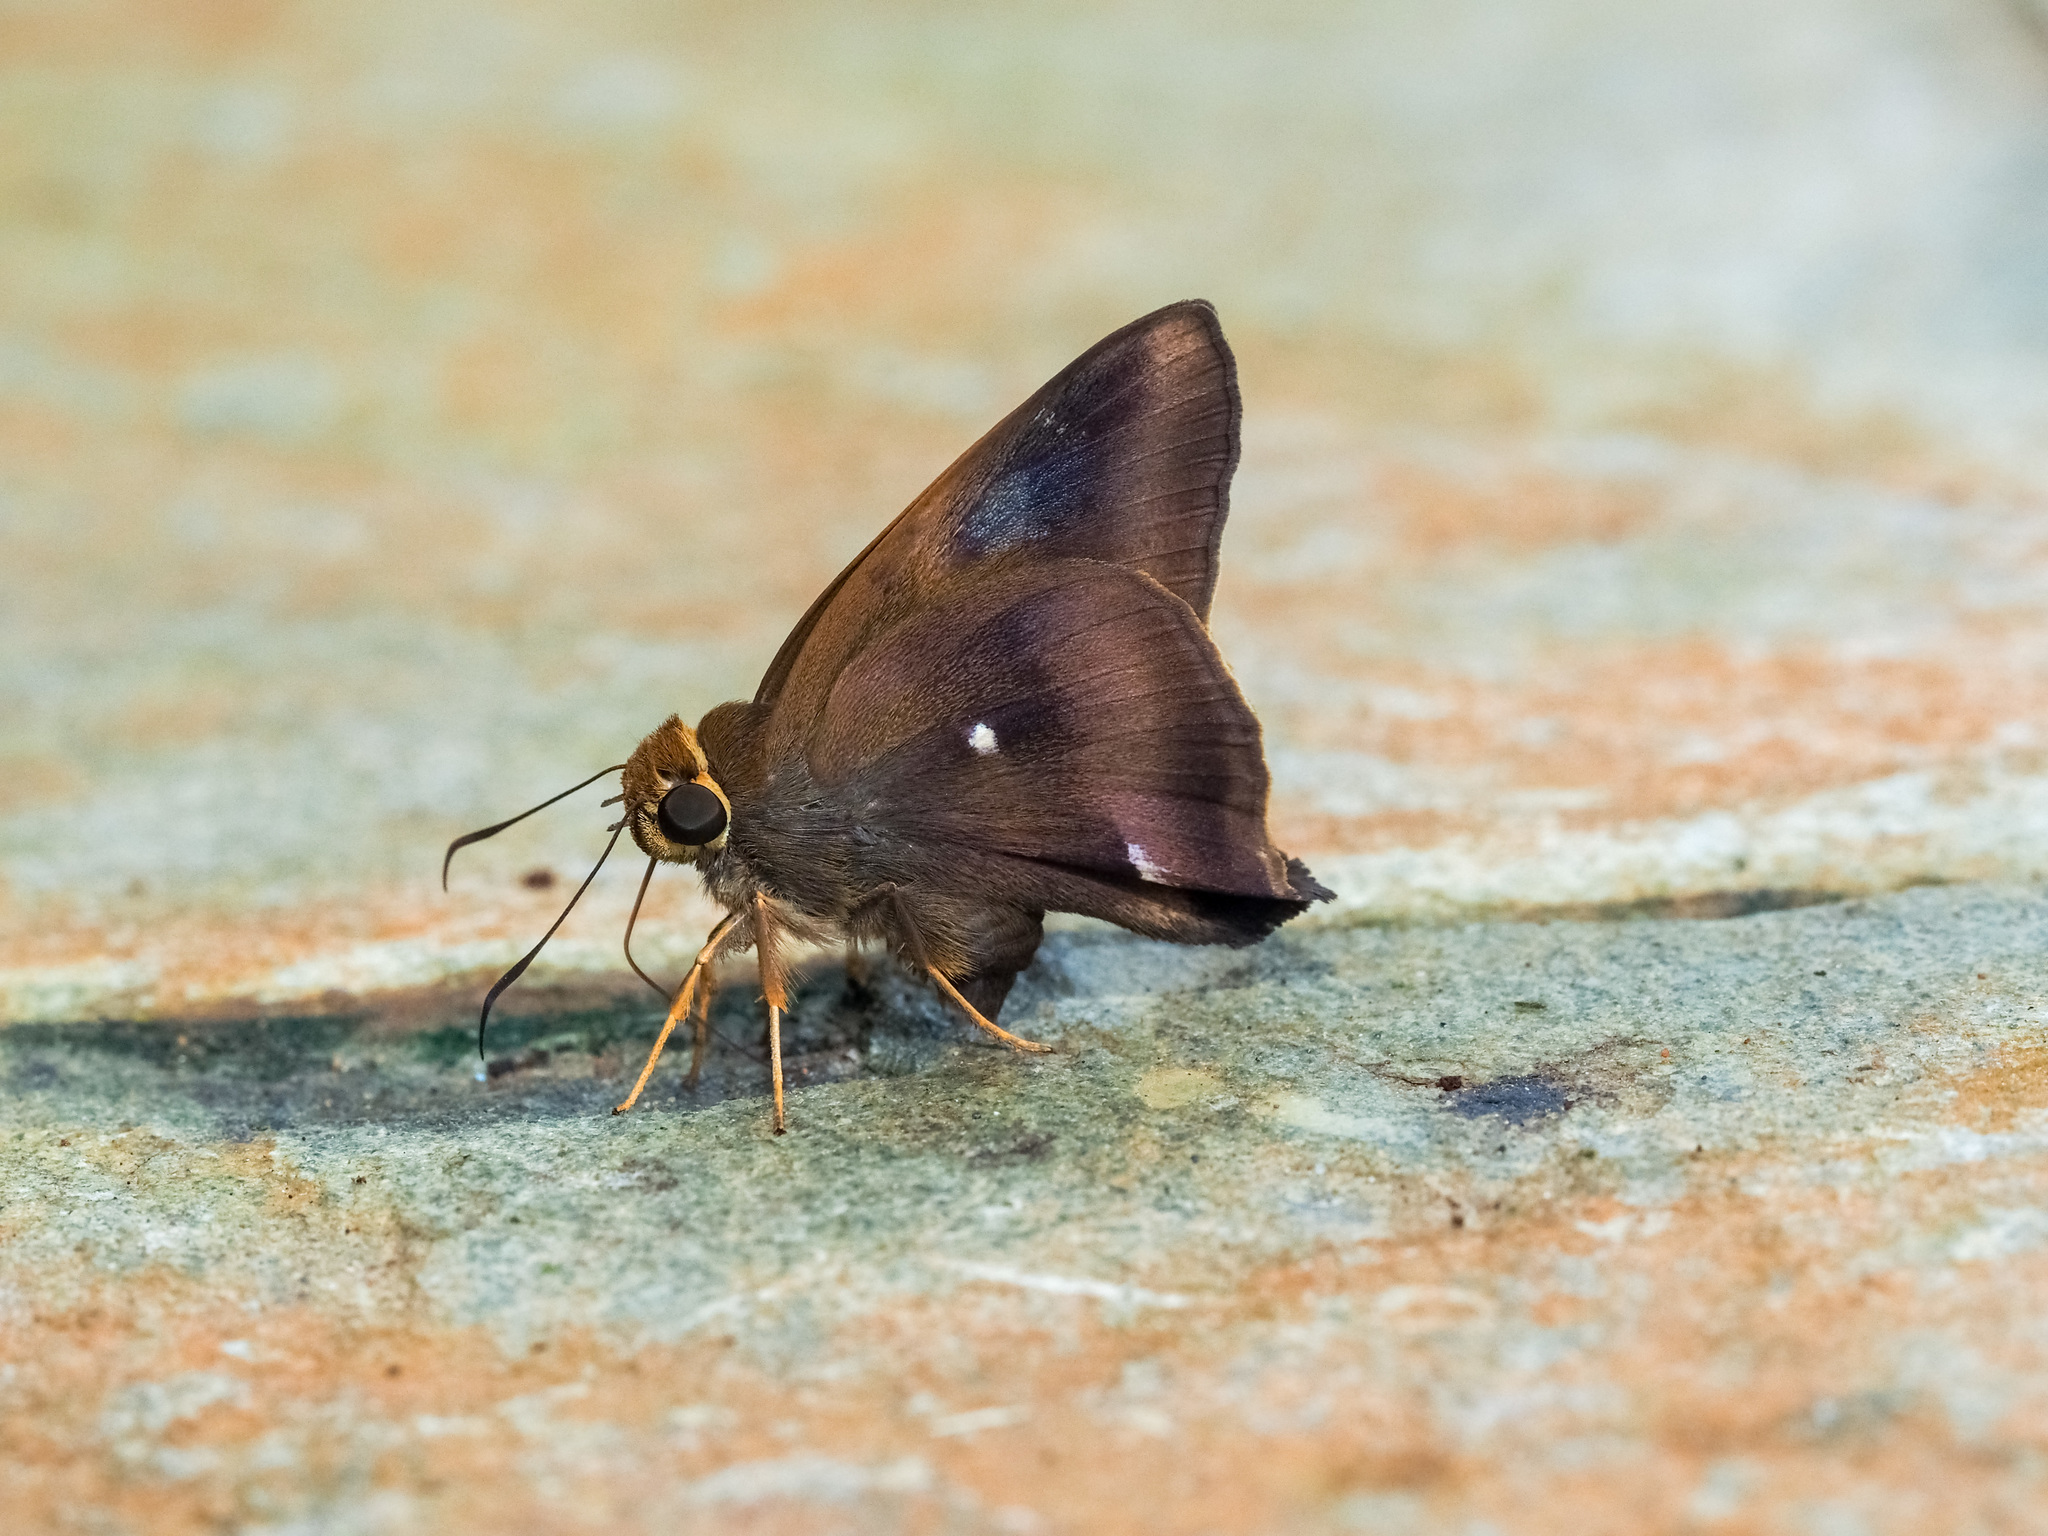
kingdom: Animalia
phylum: Arthropoda
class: Insecta
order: Lepidoptera
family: Hesperiidae
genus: Hasora
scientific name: Hasora badra
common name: Common awl
